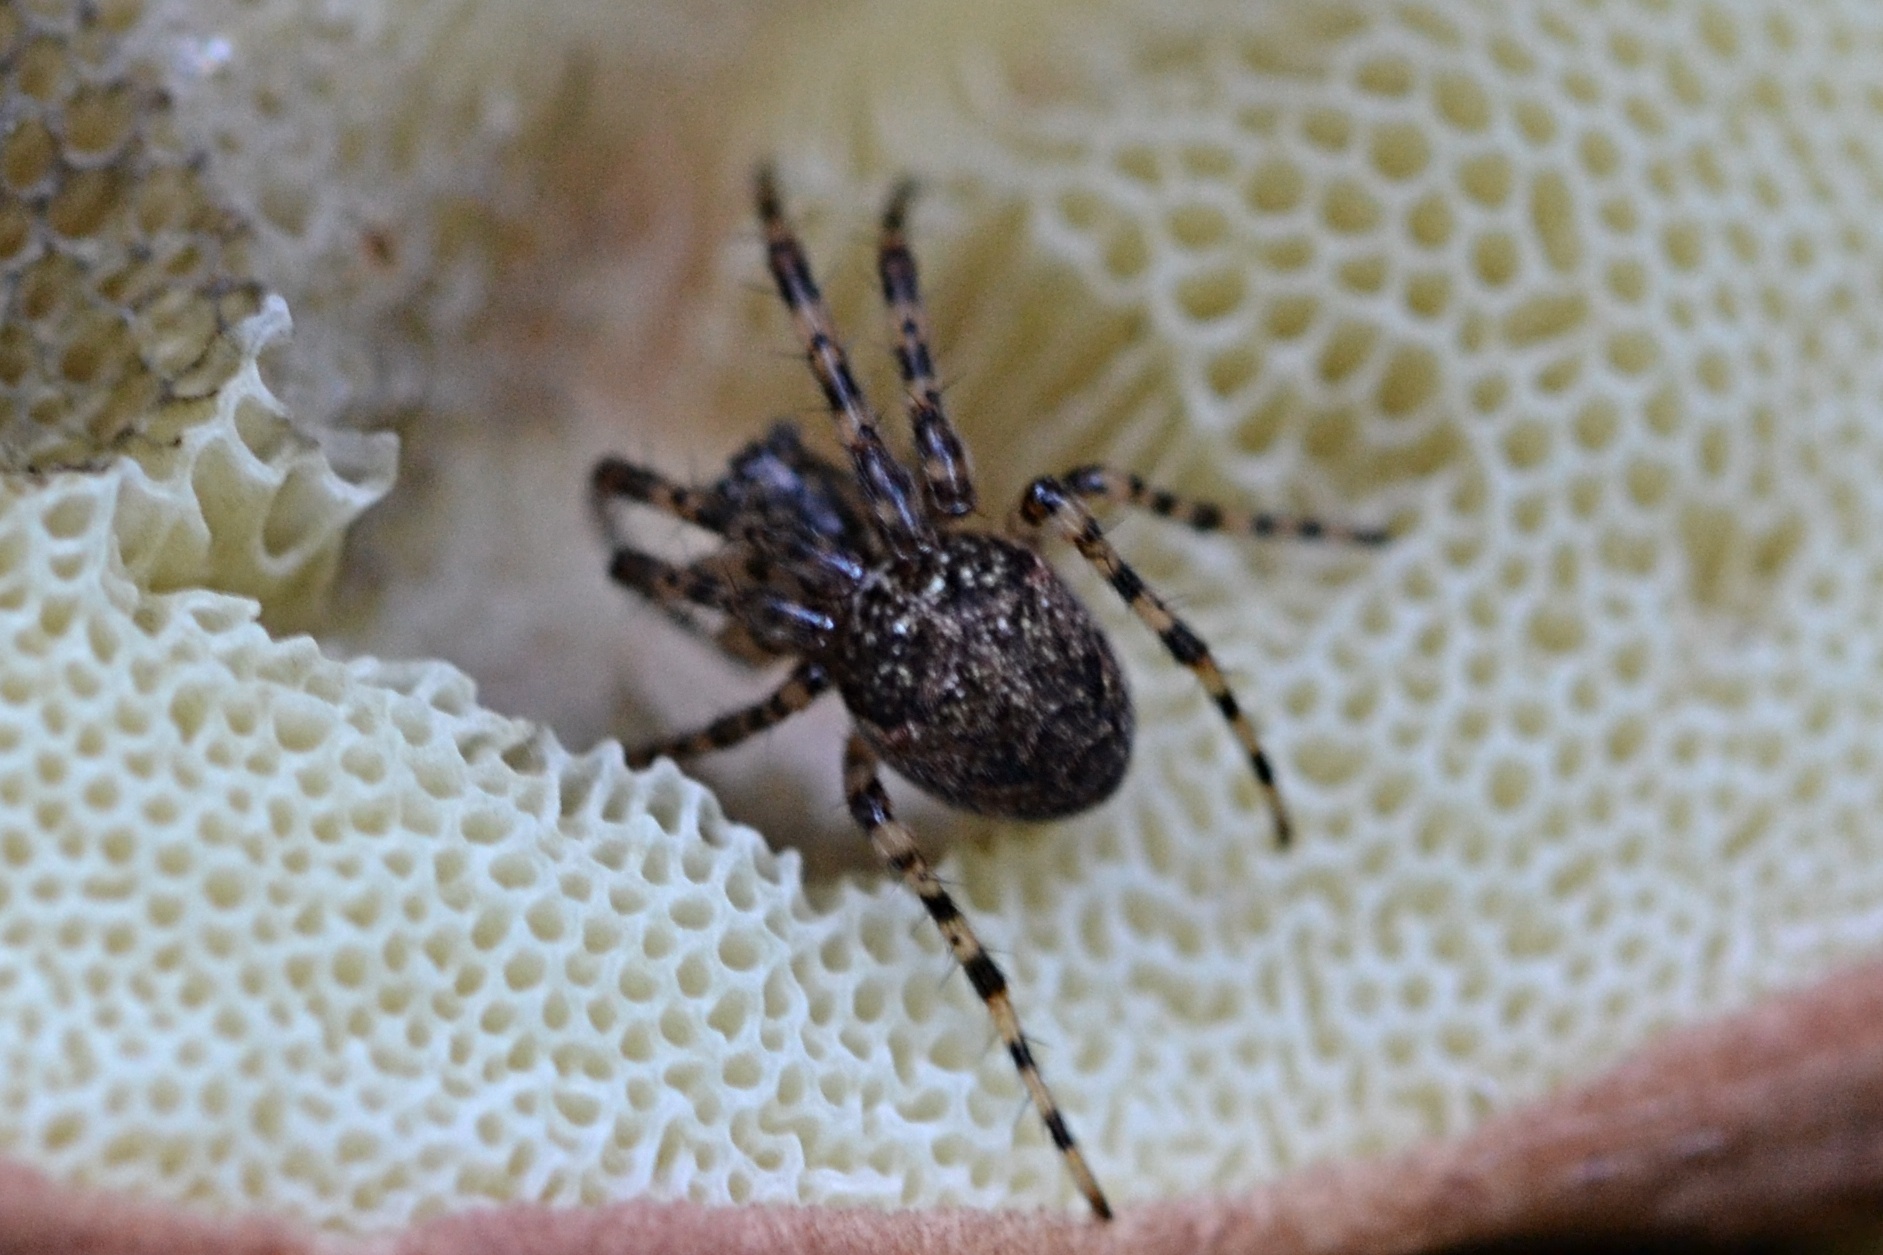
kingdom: Animalia
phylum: Arthropoda
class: Arachnida
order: Araneae
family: Tetragnathidae
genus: Metellina
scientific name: Metellina merianae
